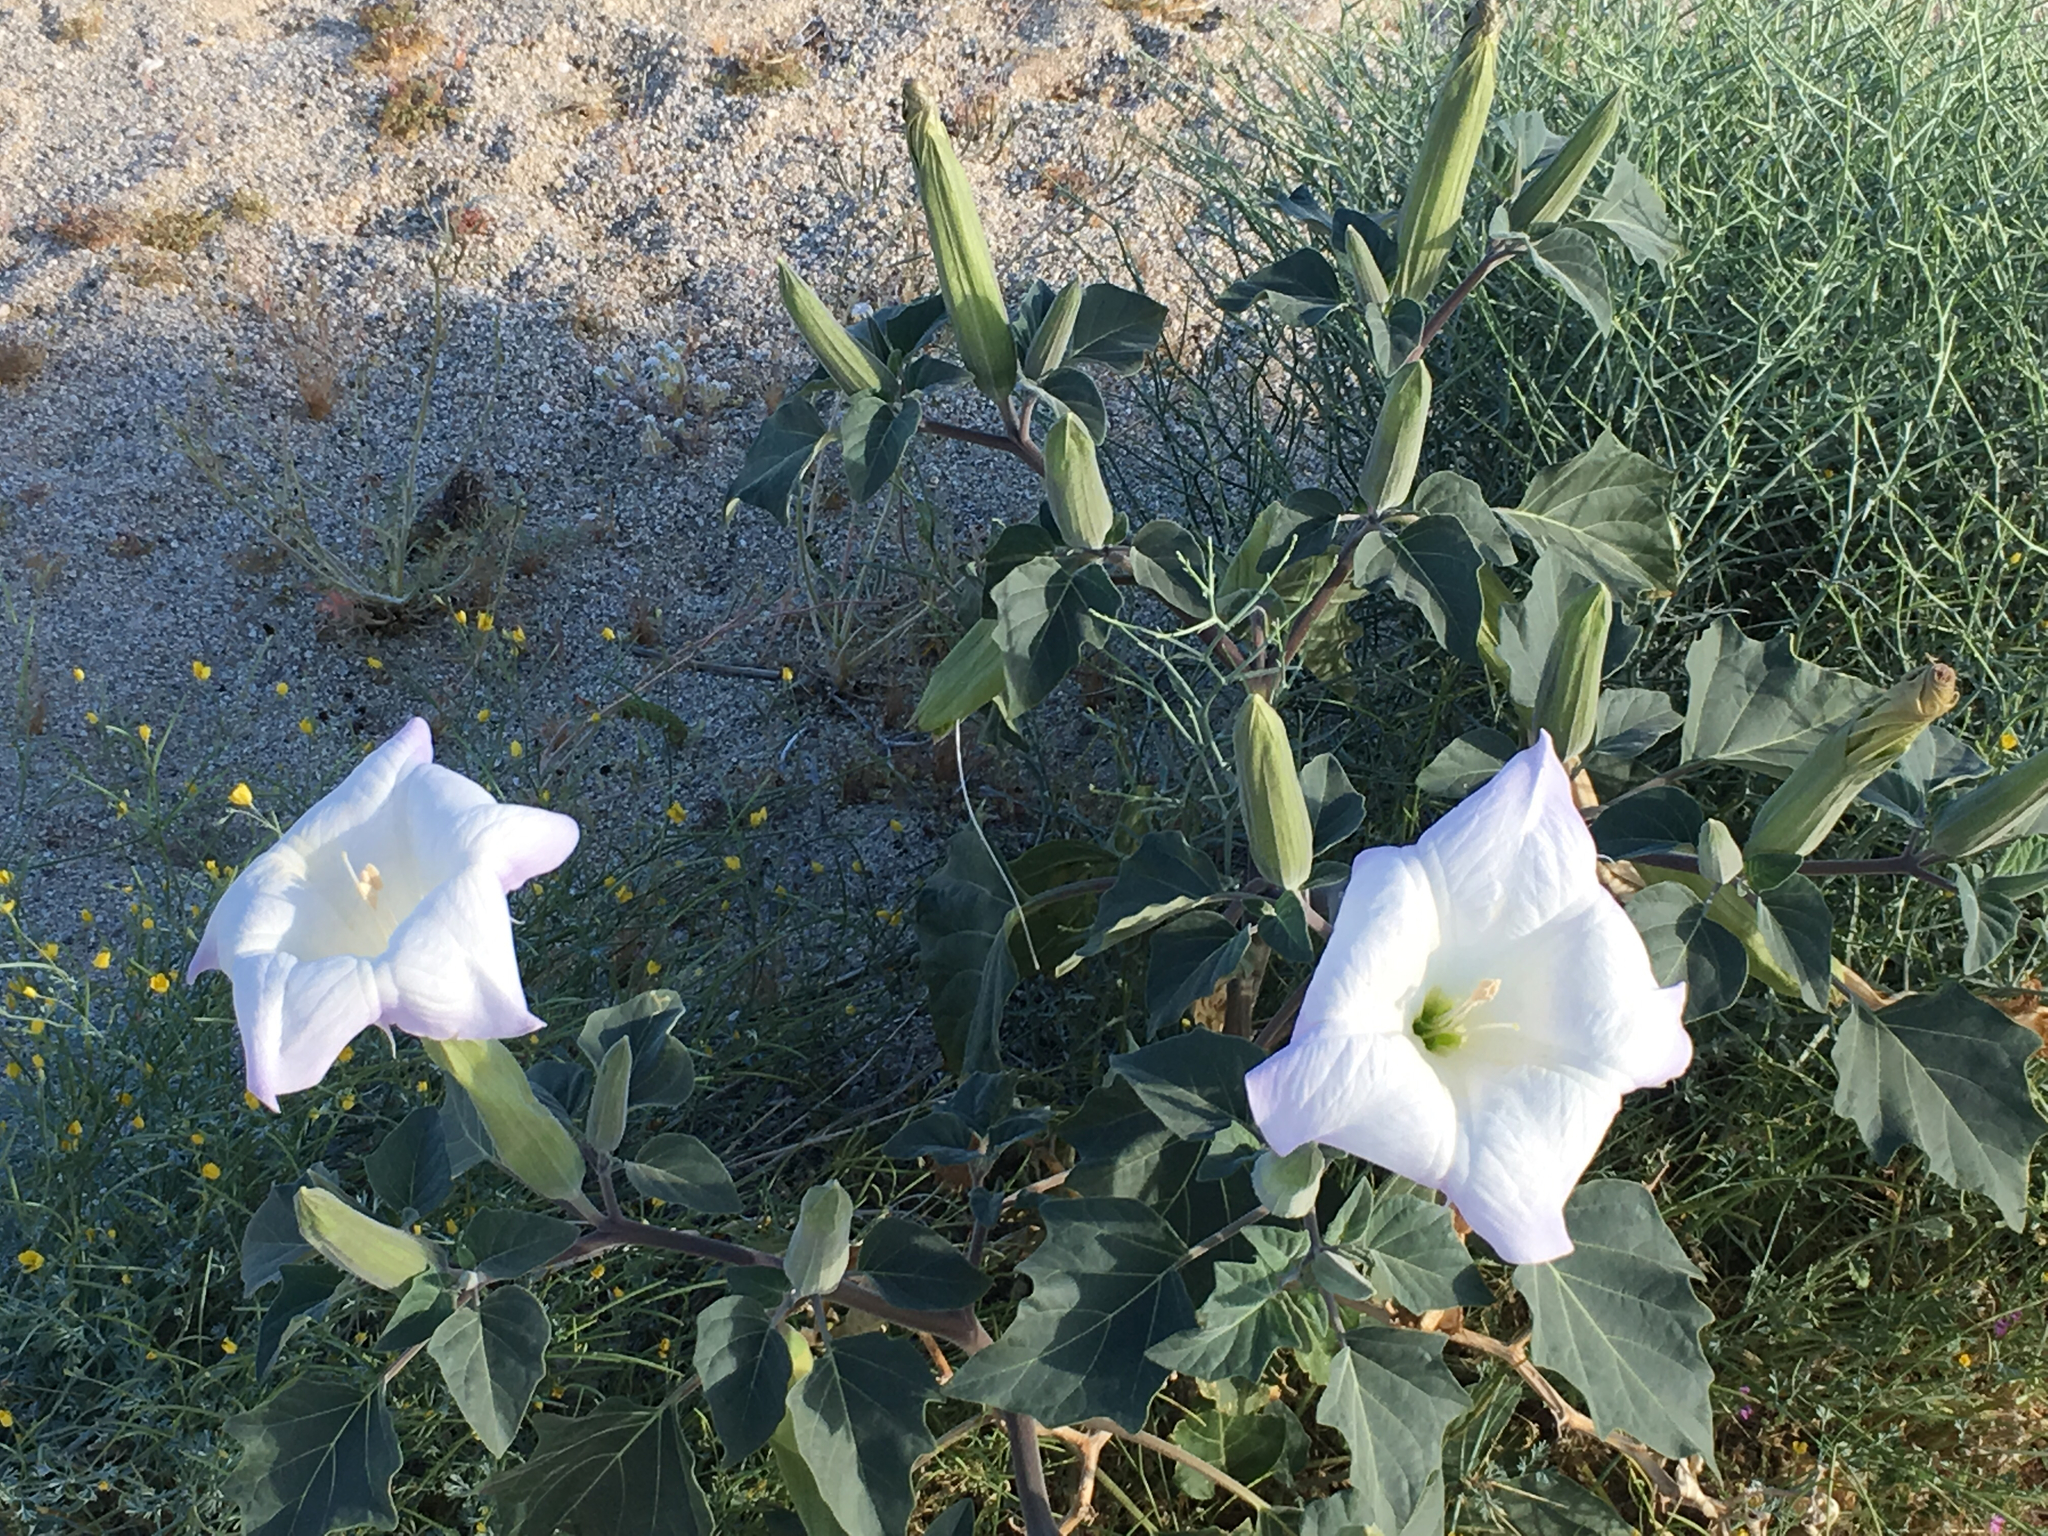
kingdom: Plantae
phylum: Tracheophyta
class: Magnoliopsida
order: Solanales
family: Solanaceae
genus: Datura
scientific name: Datura wrightii
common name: Sacred thorn-apple
